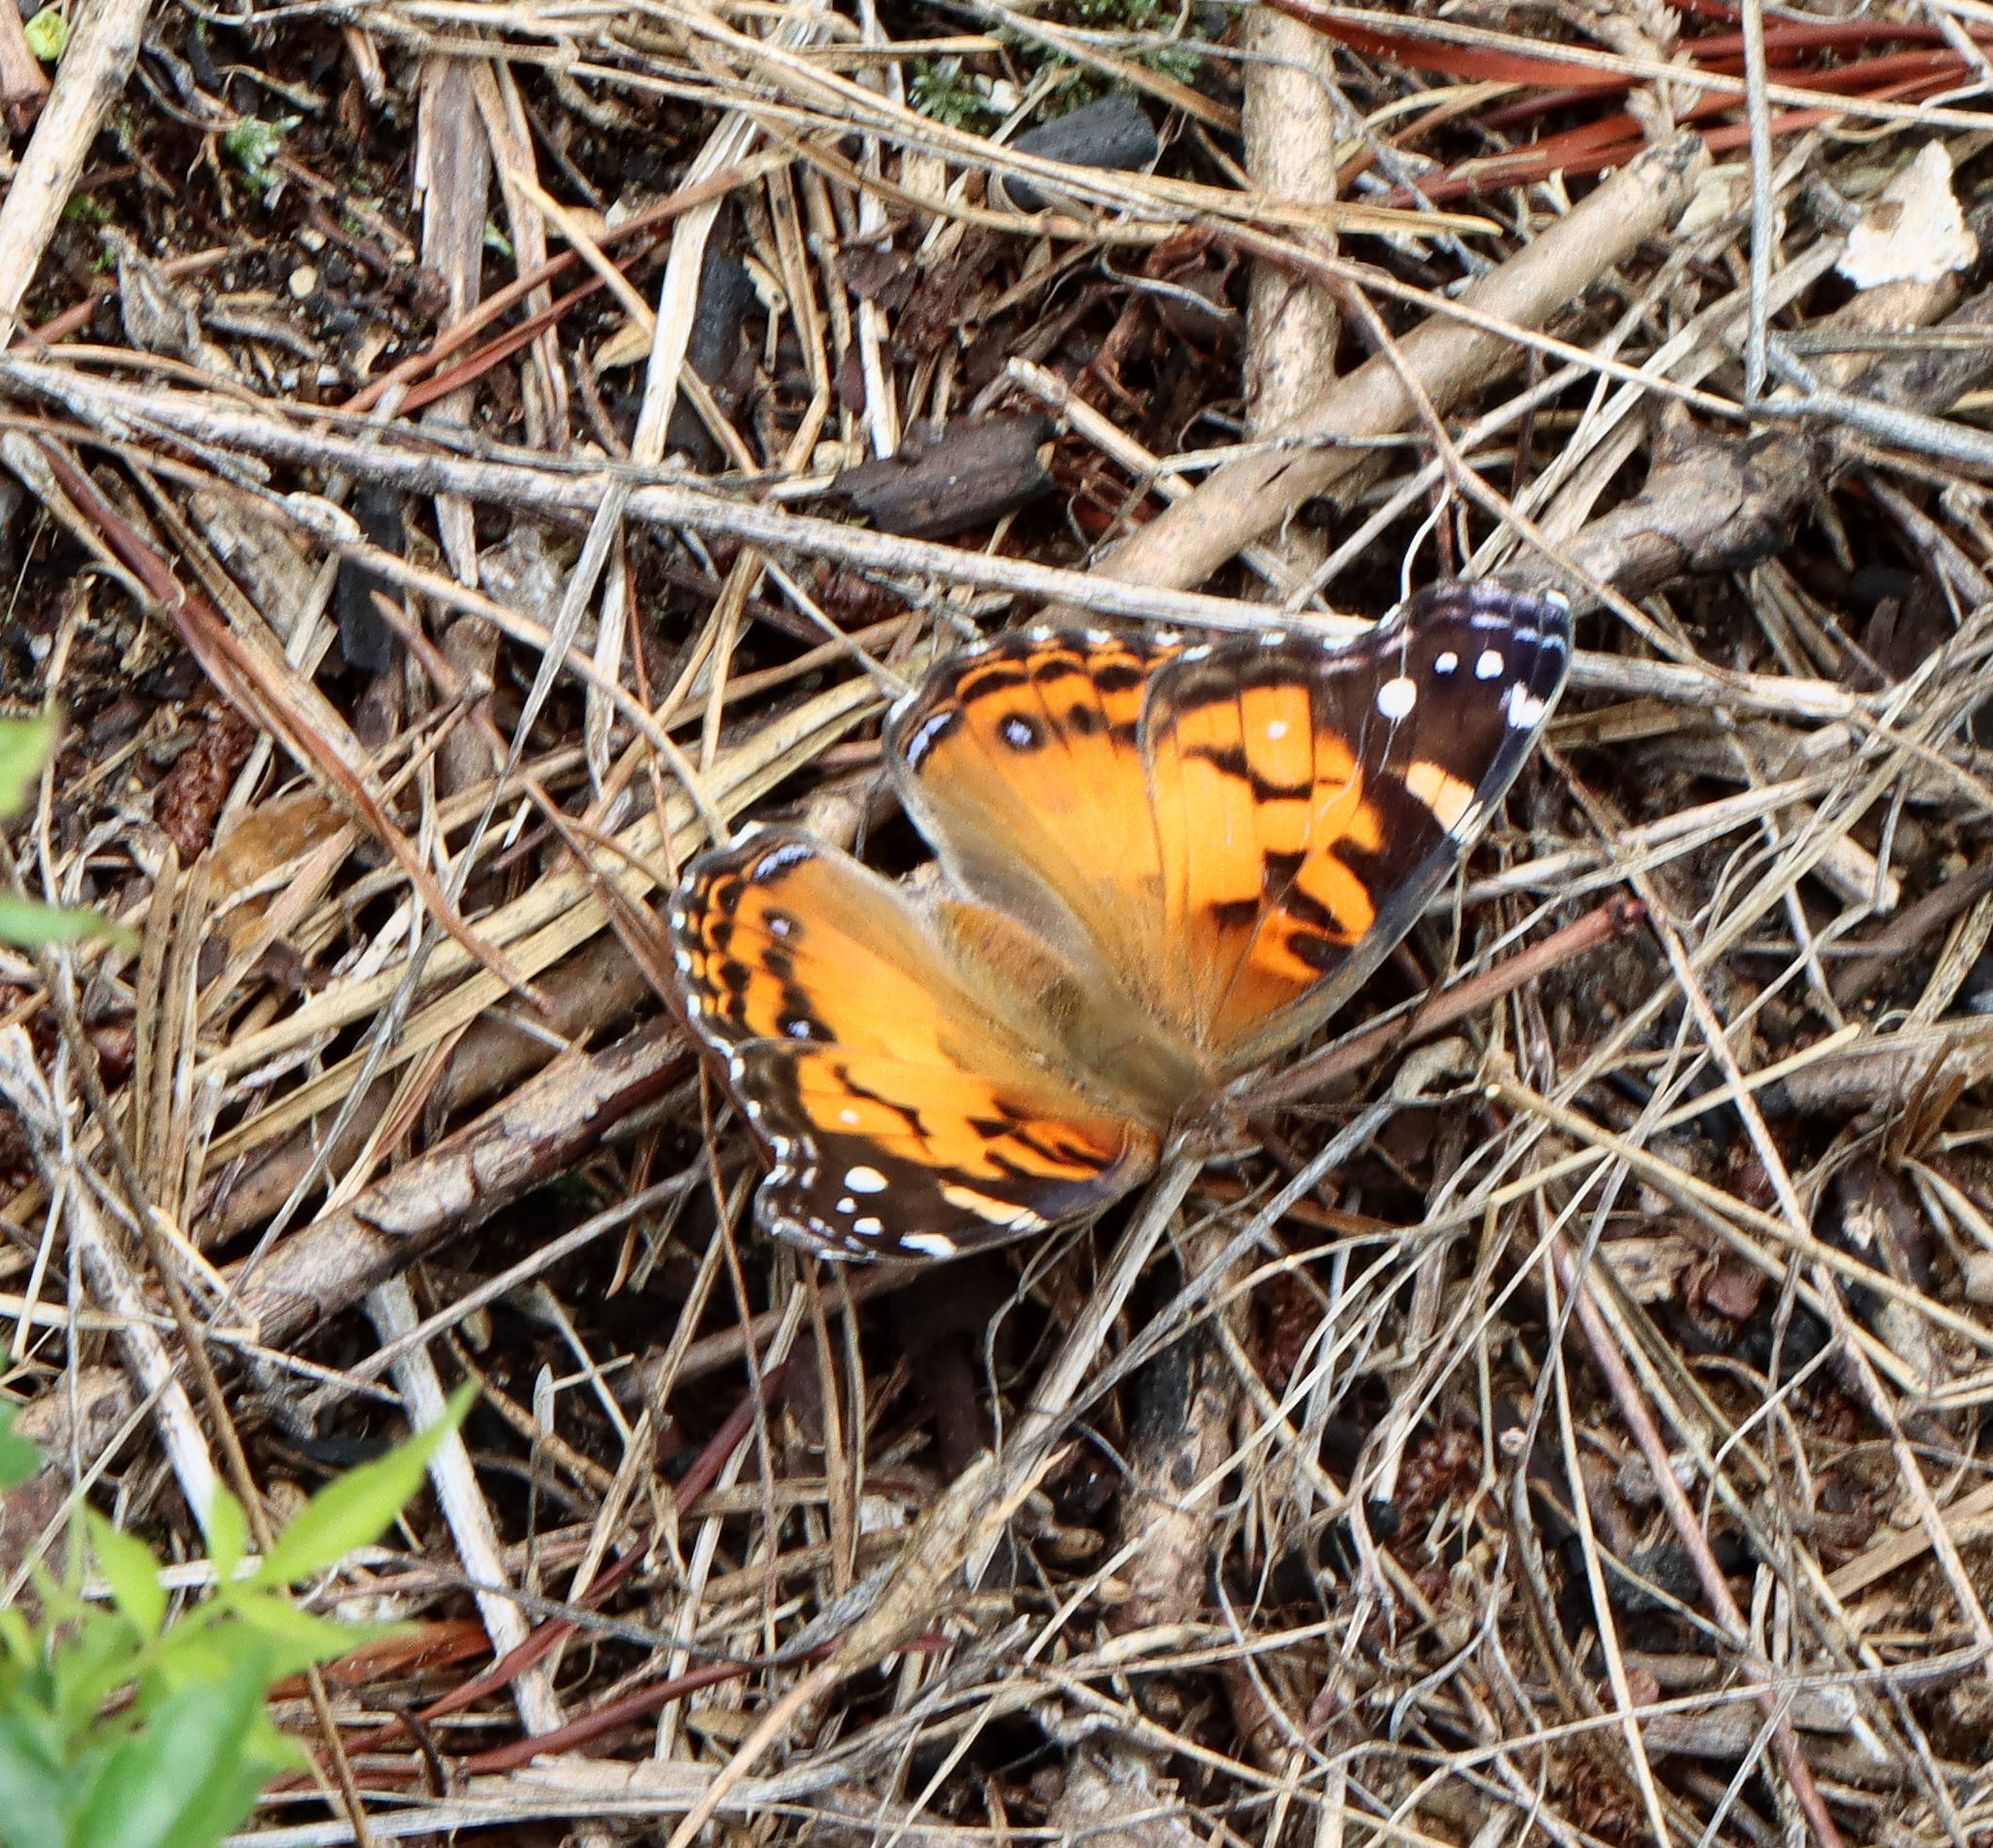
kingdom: Animalia
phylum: Arthropoda
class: Insecta
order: Lepidoptera
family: Nymphalidae
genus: Vanessa
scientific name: Vanessa virginiensis
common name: American lady
